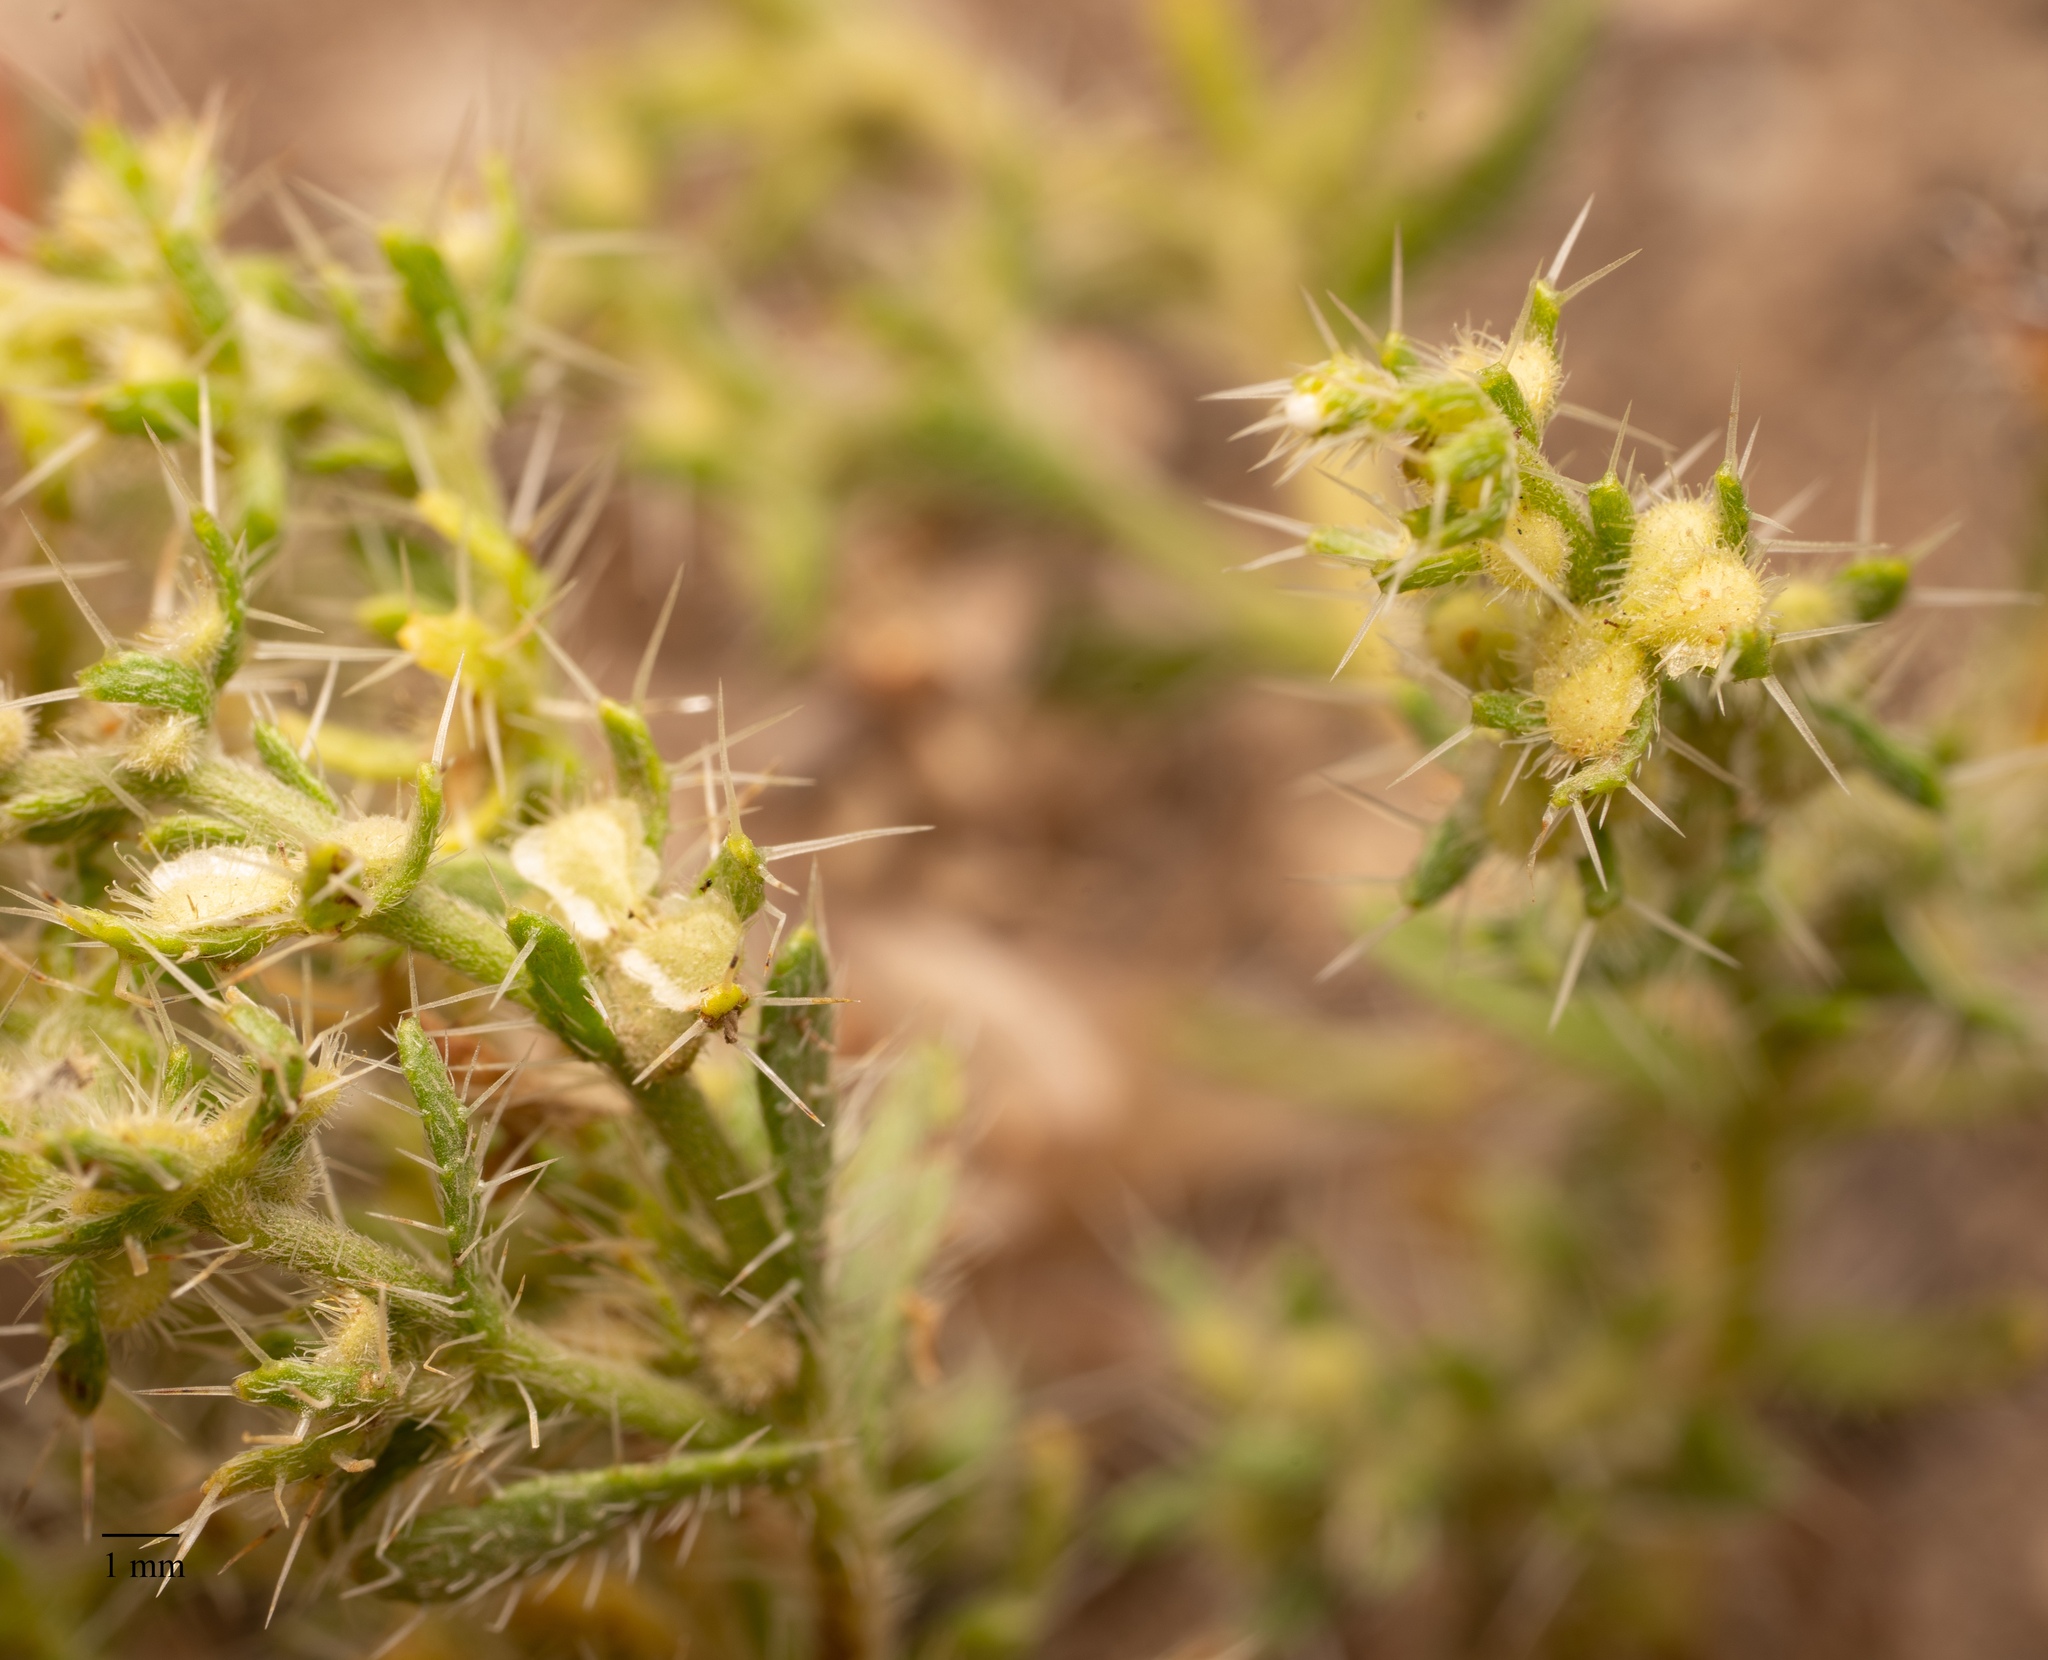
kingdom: Plantae
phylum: Tracheophyta
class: Magnoliopsida
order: Boraginales
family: Boraginaceae
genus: Pectocarya
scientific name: Pectocarya setosa
